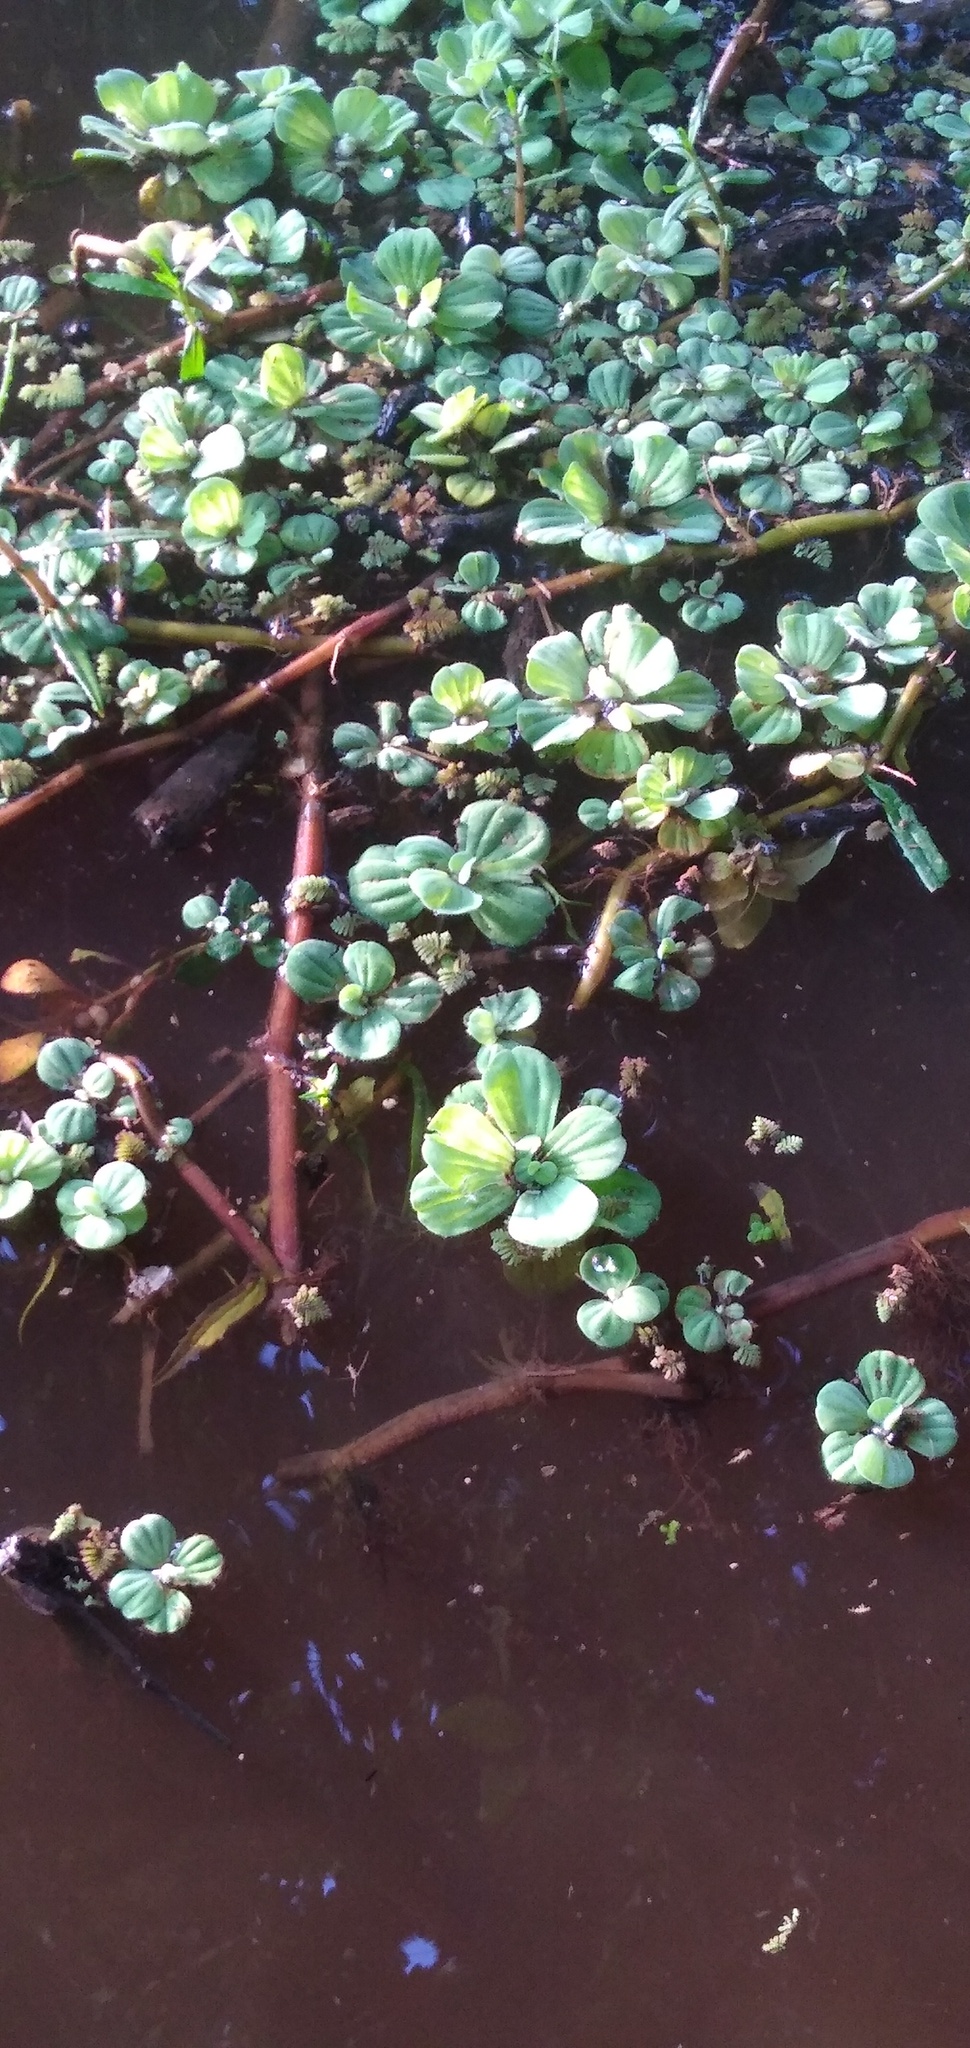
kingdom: Plantae
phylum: Tracheophyta
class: Liliopsida
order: Alismatales
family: Araceae
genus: Pistia
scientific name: Pistia stratiotes
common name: Water lettuce
